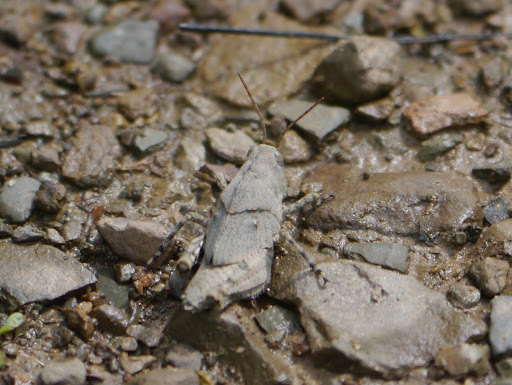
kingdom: Animalia
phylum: Arthropoda
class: Insecta
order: Orthoptera
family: Acrididae
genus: Dissosteira
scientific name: Dissosteira carolina
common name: Carolina grasshopper
